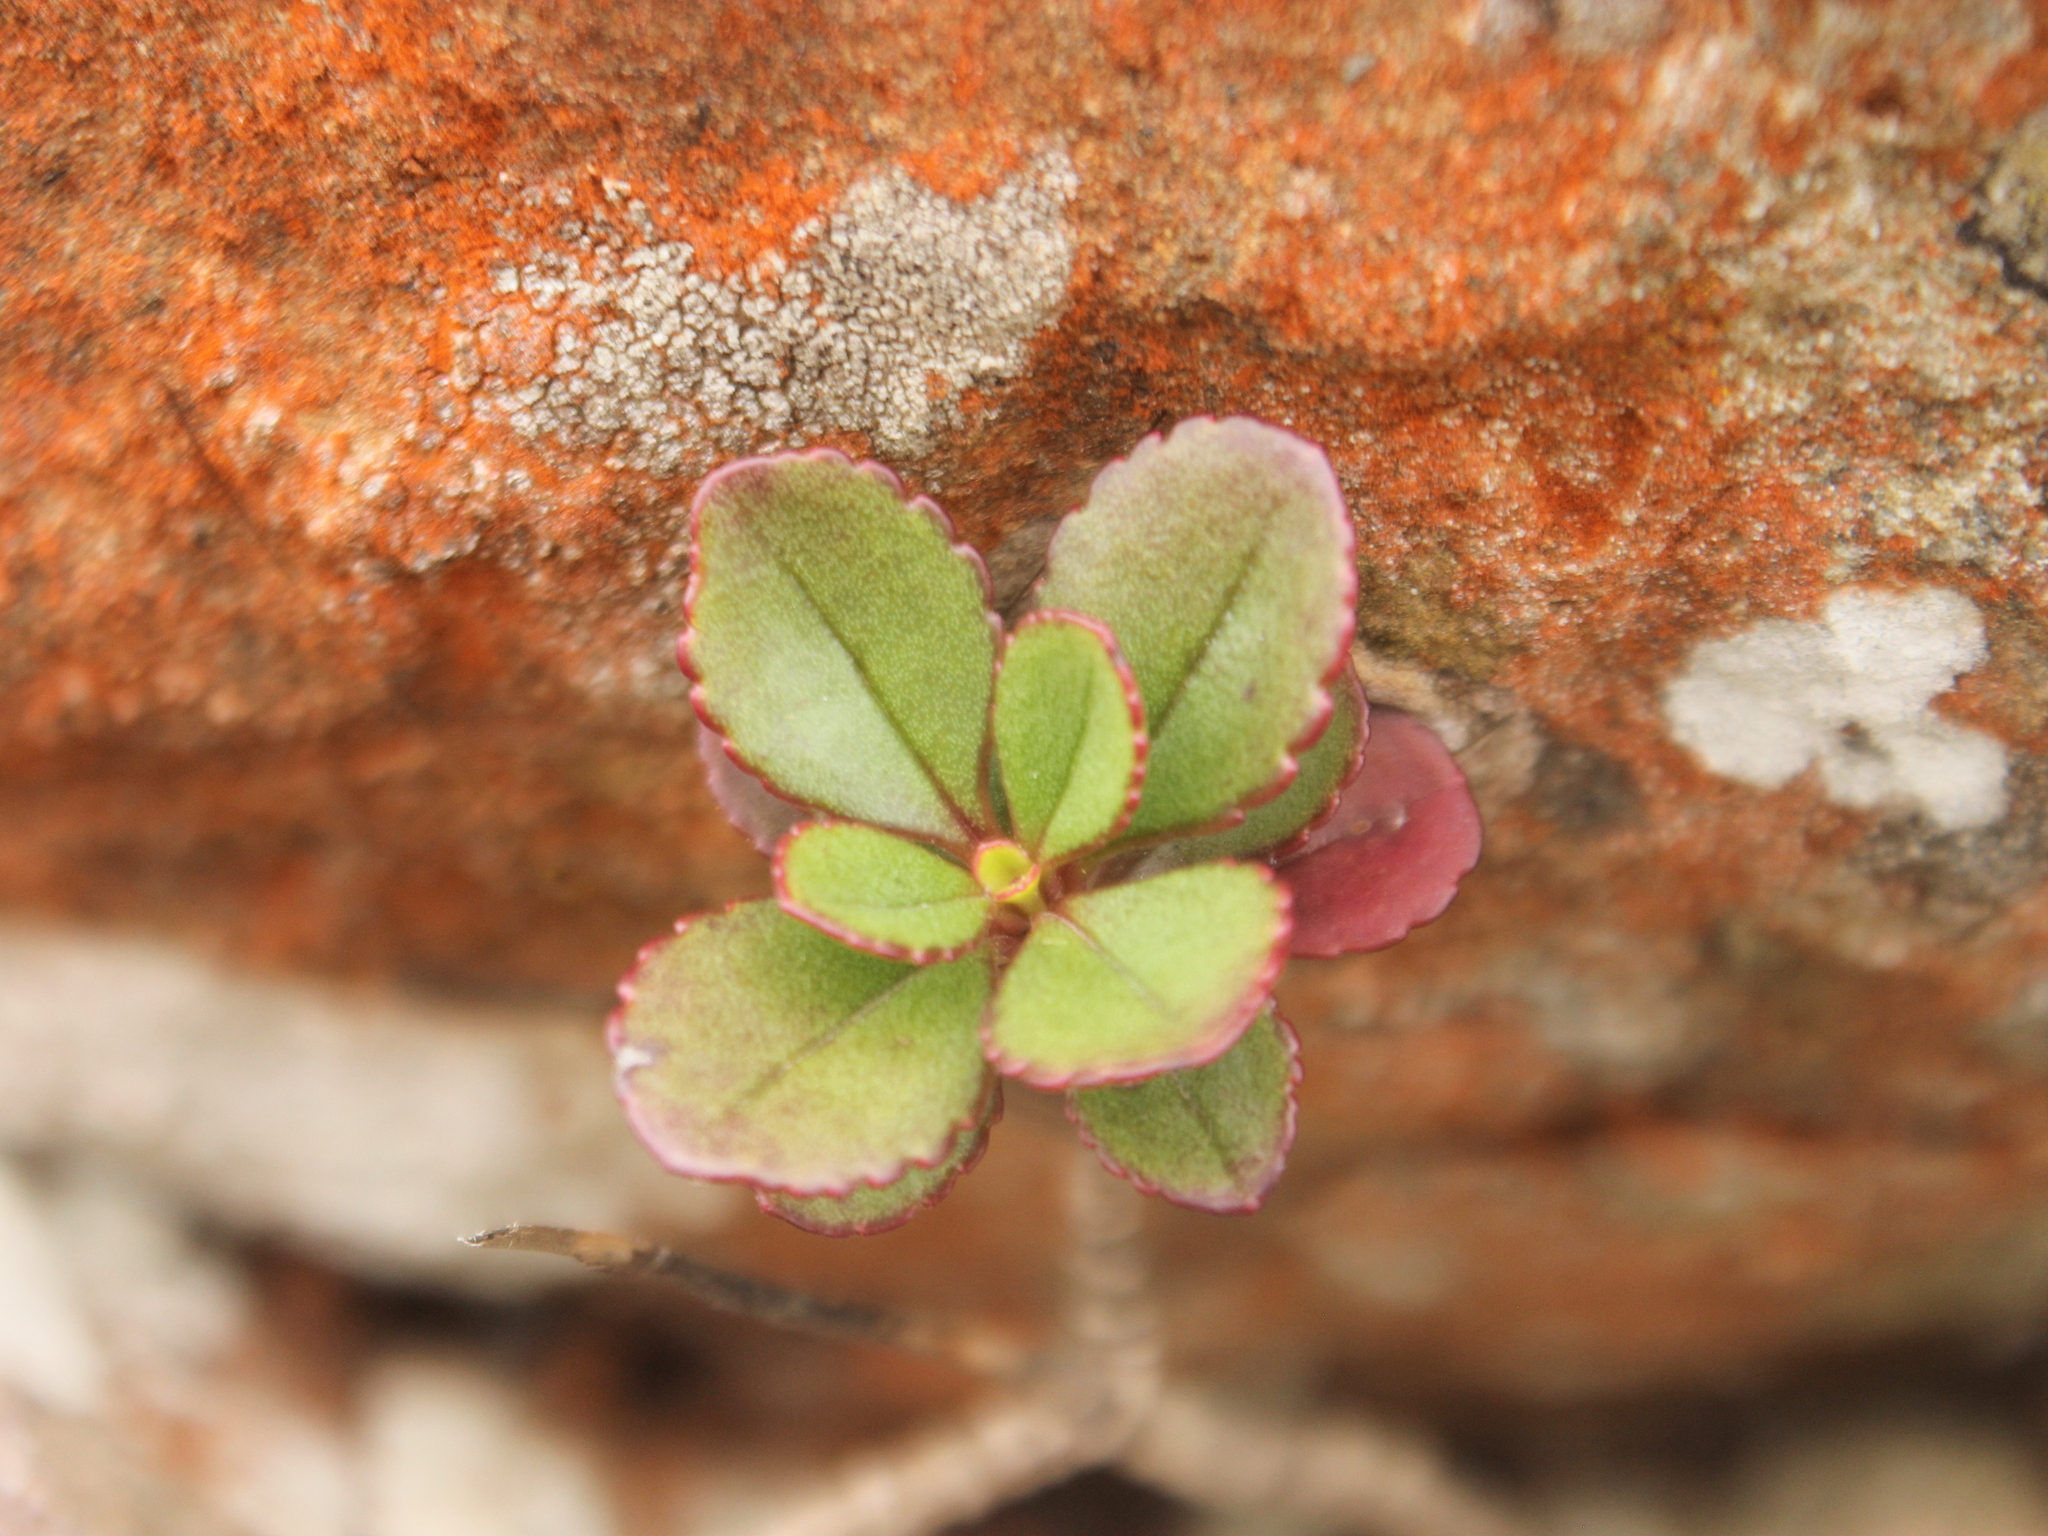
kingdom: Plantae
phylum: Tracheophyta
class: Magnoliopsida
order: Lamiales
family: Plantaginaceae
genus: Veronica
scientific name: Veronica lavaudiana
